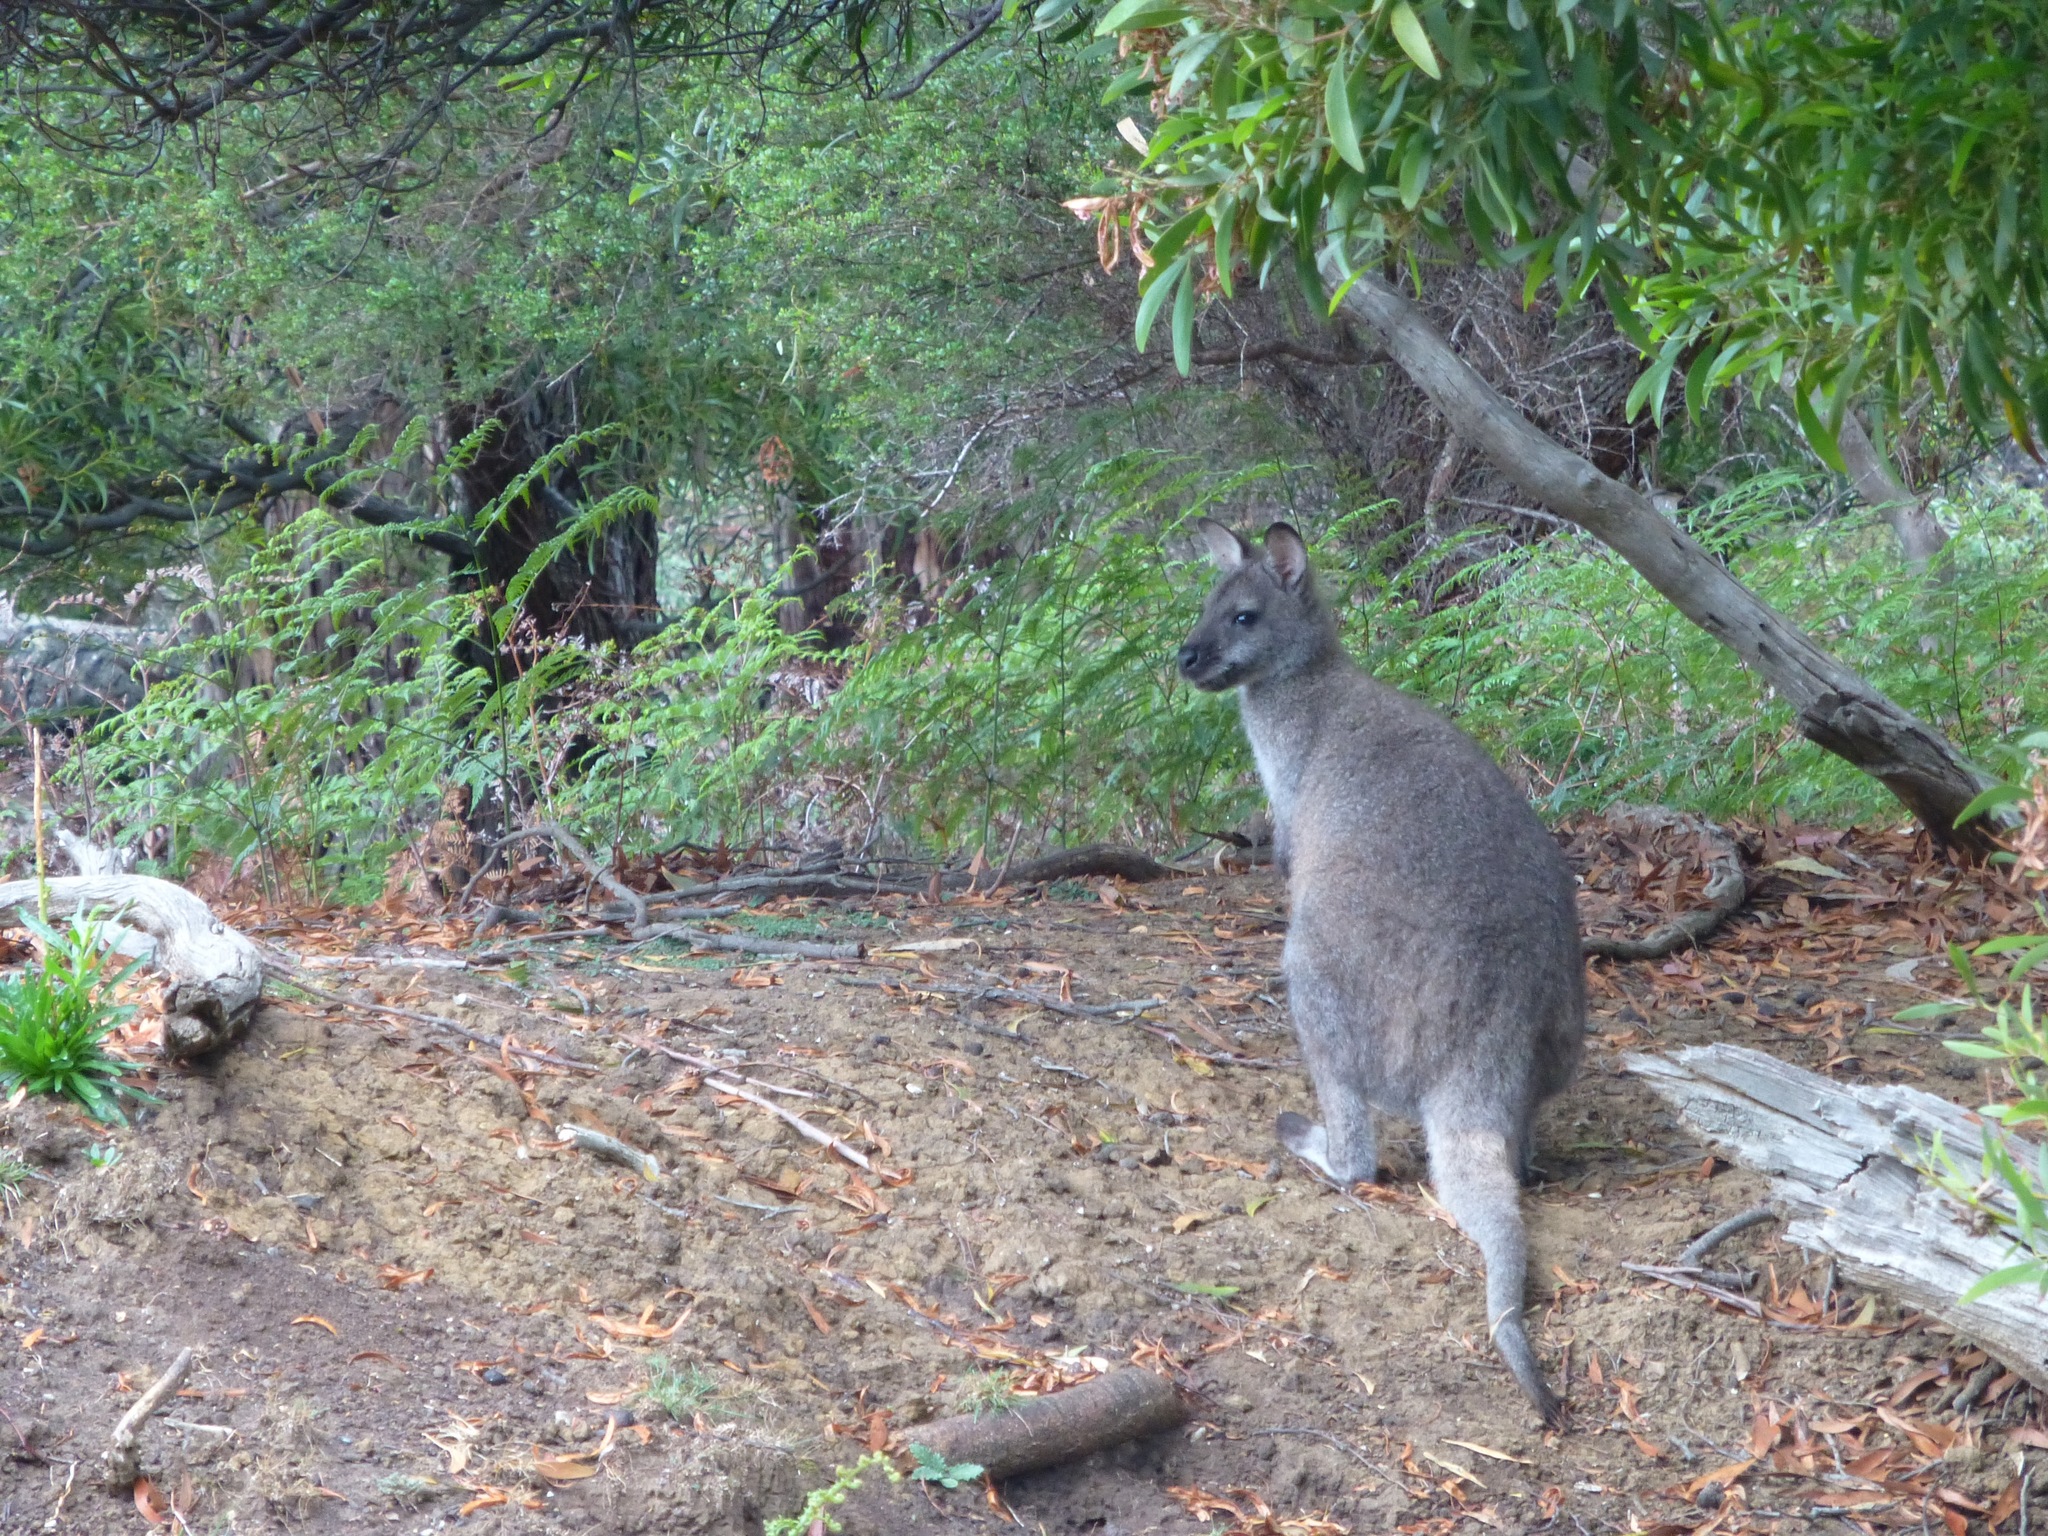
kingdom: Animalia
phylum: Chordata
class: Mammalia
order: Diprotodontia
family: Macropodidae
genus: Notamacropus
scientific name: Notamacropus rufogriseus
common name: Red-necked wallaby
